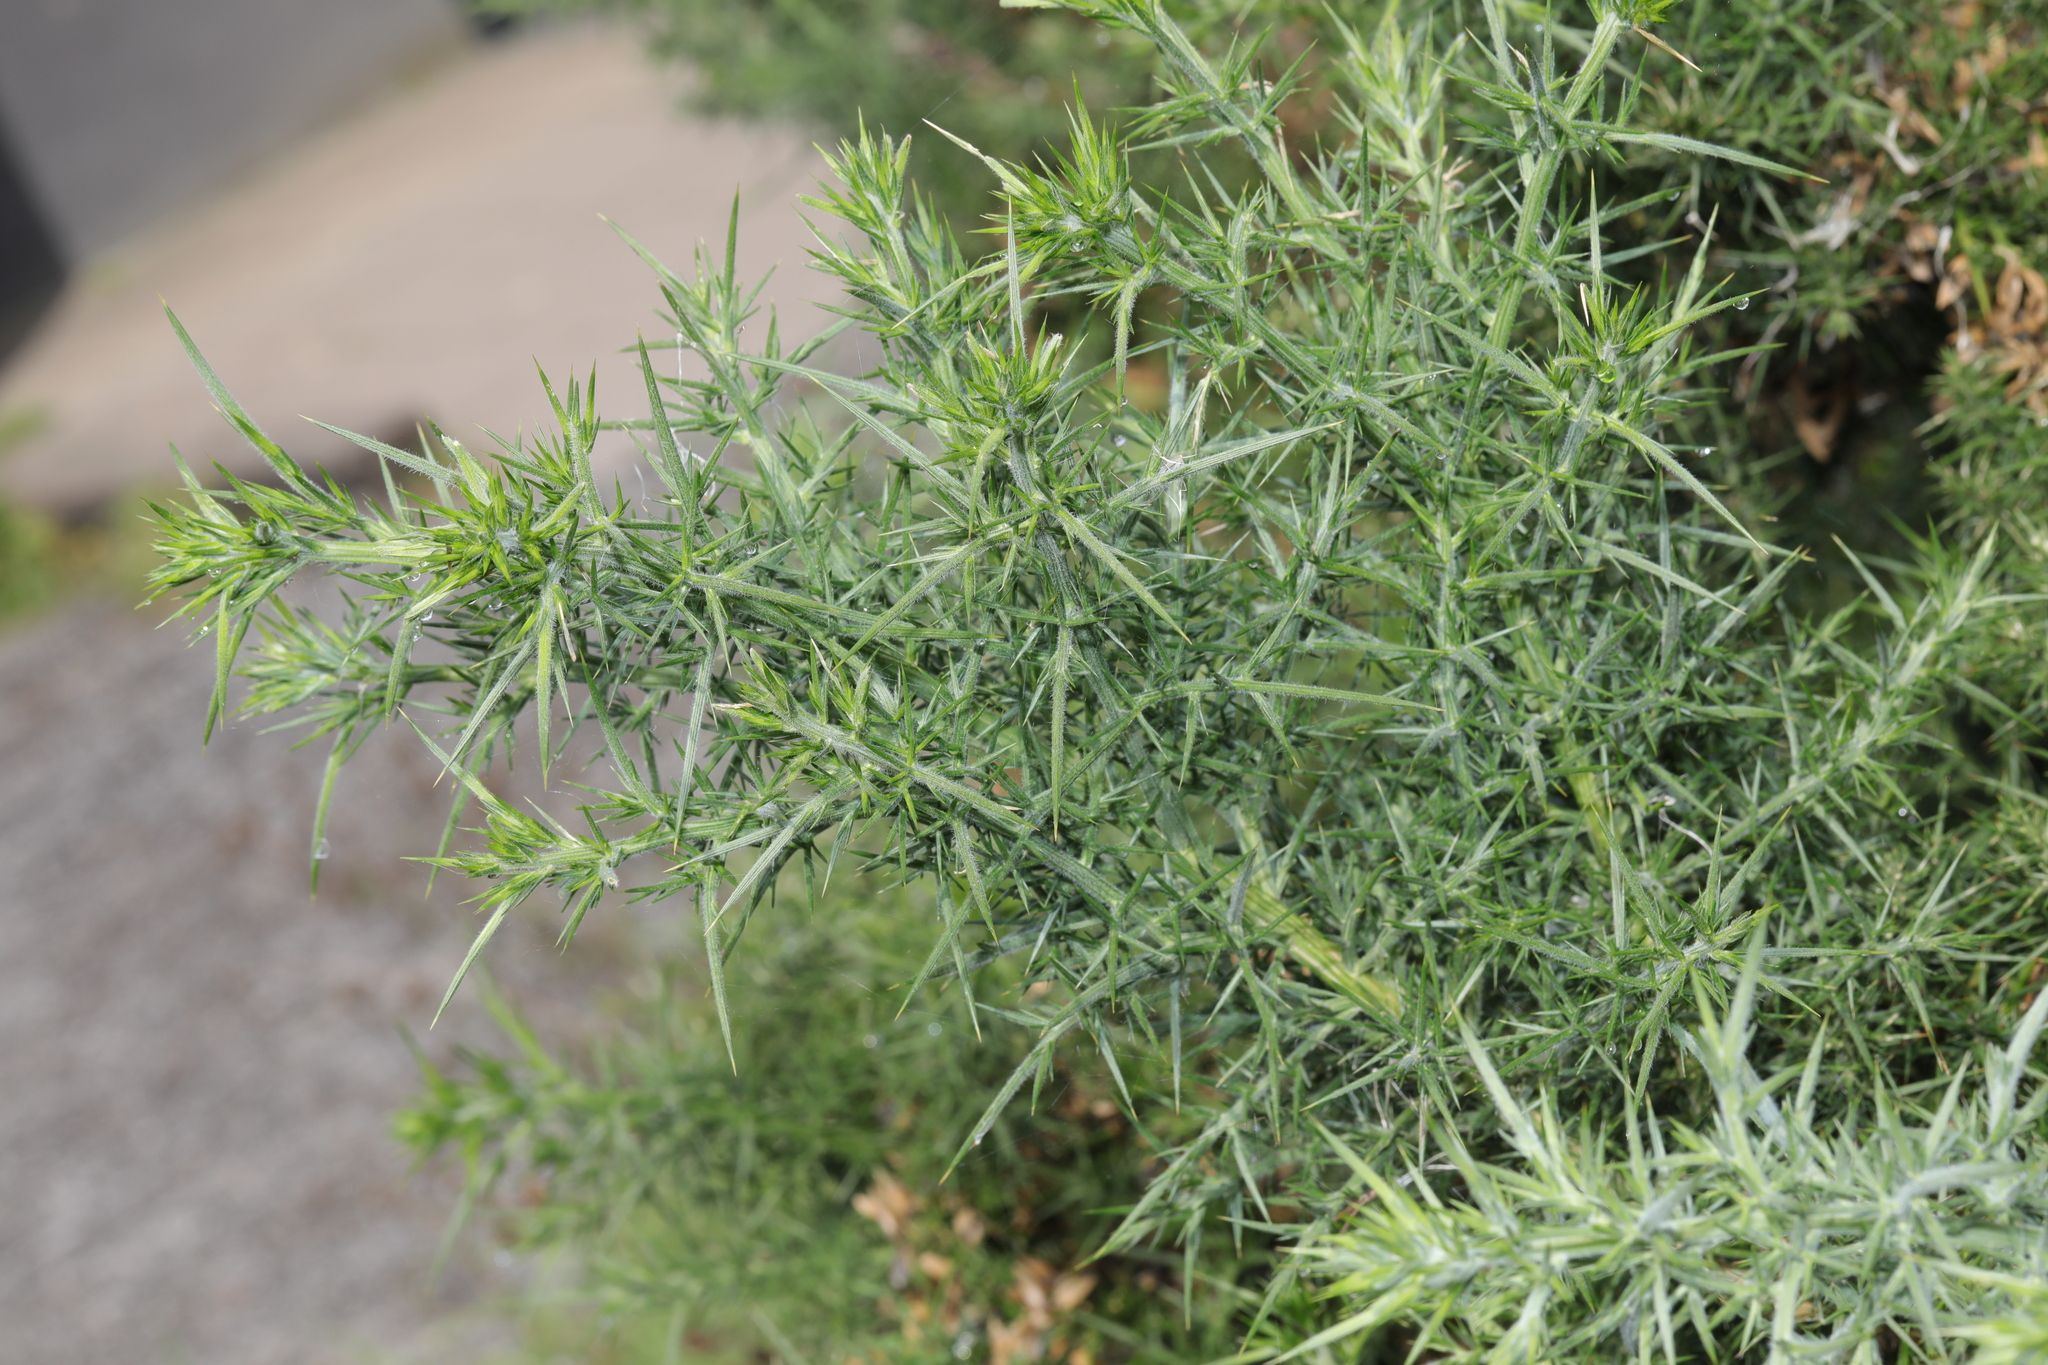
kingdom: Plantae
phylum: Tracheophyta
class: Magnoliopsida
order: Fabales
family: Fabaceae
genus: Ulex
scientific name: Ulex europaeus
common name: Common gorse
